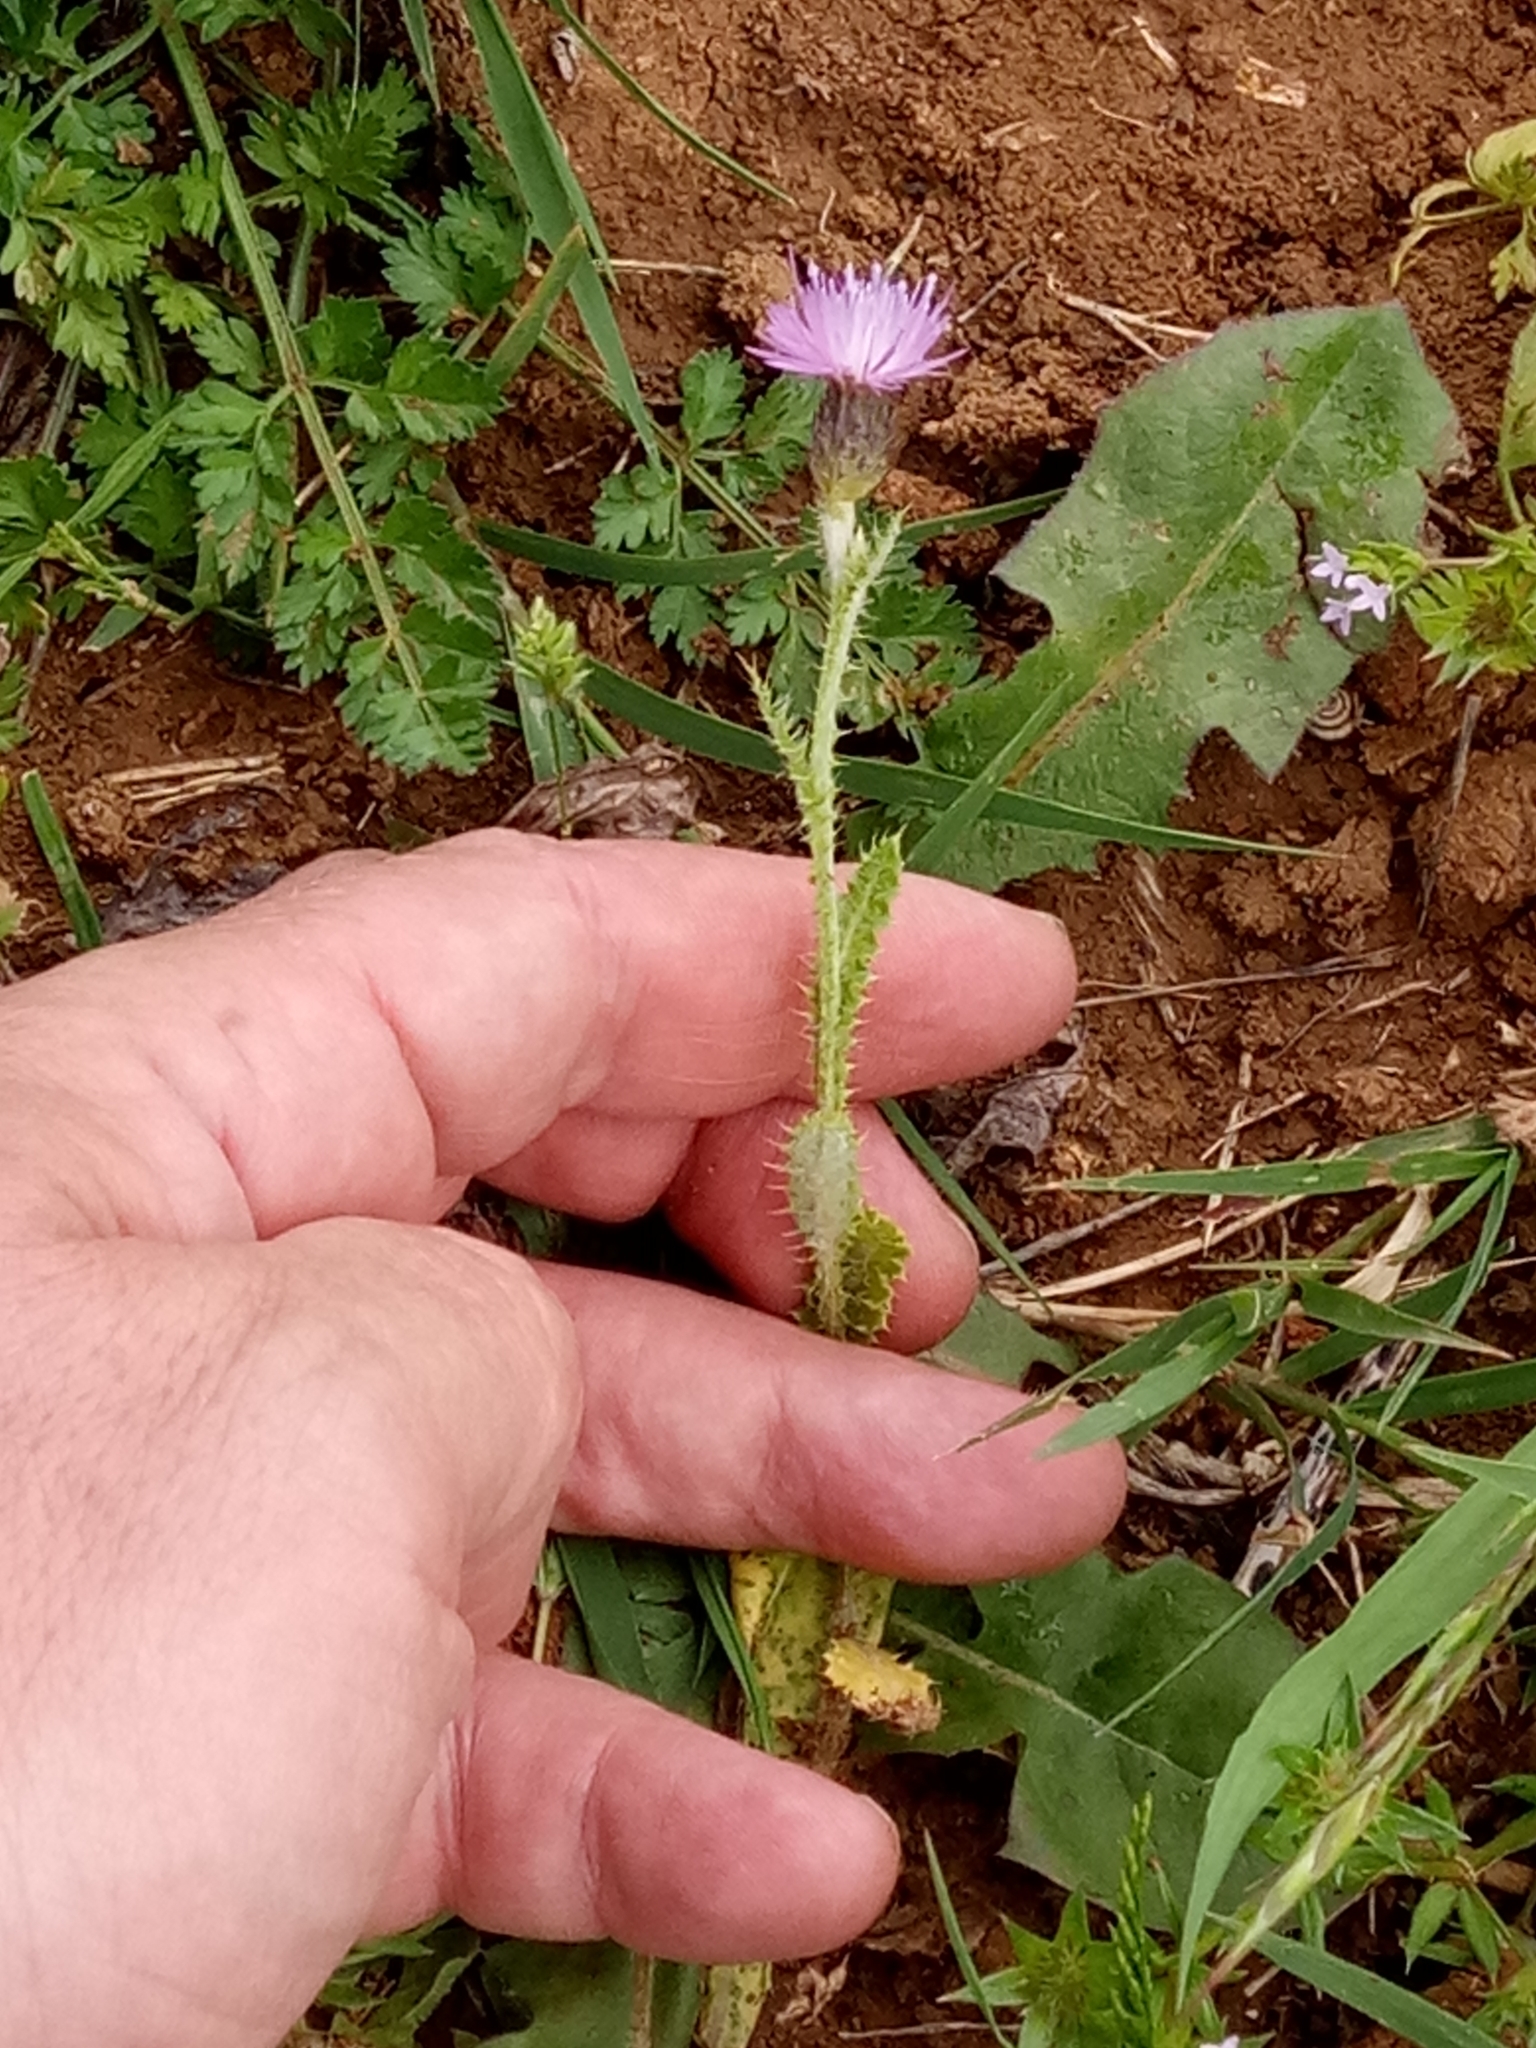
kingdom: Plantae
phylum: Tracheophyta
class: Magnoliopsida
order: Asterales
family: Asteraceae
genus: Carduus
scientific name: Carduus crispus
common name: Welted thistle
